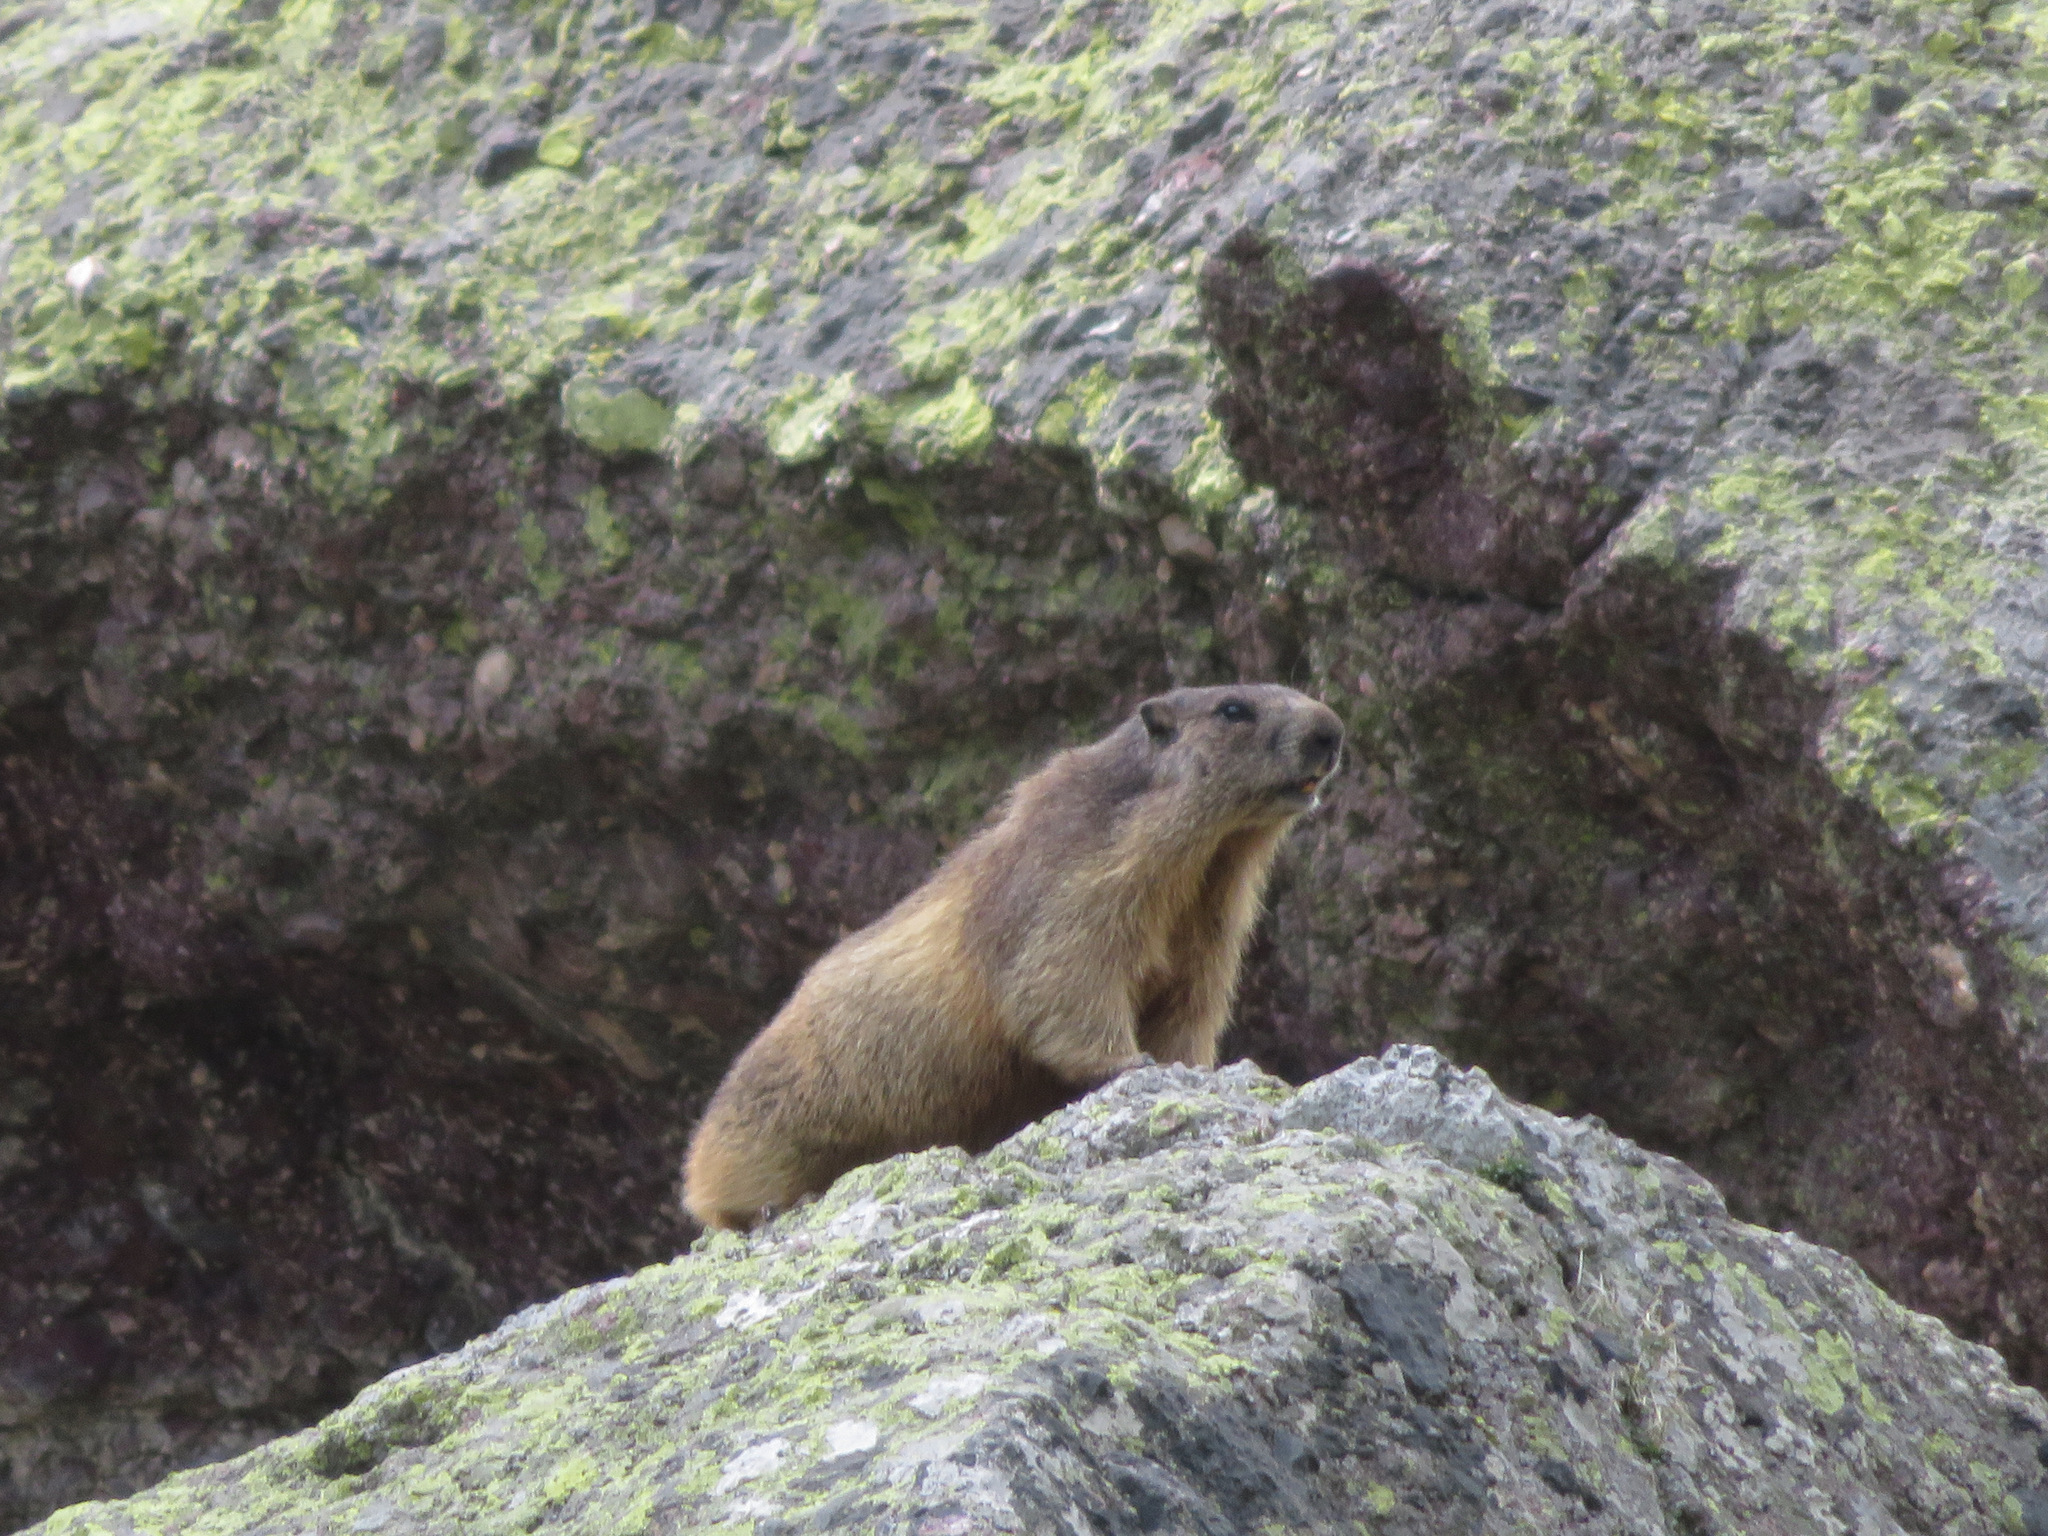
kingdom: Animalia
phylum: Chordata
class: Mammalia
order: Rodentia
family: Sciuridae
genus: Marmota
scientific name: Marmota marmota
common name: Alpine marmot
